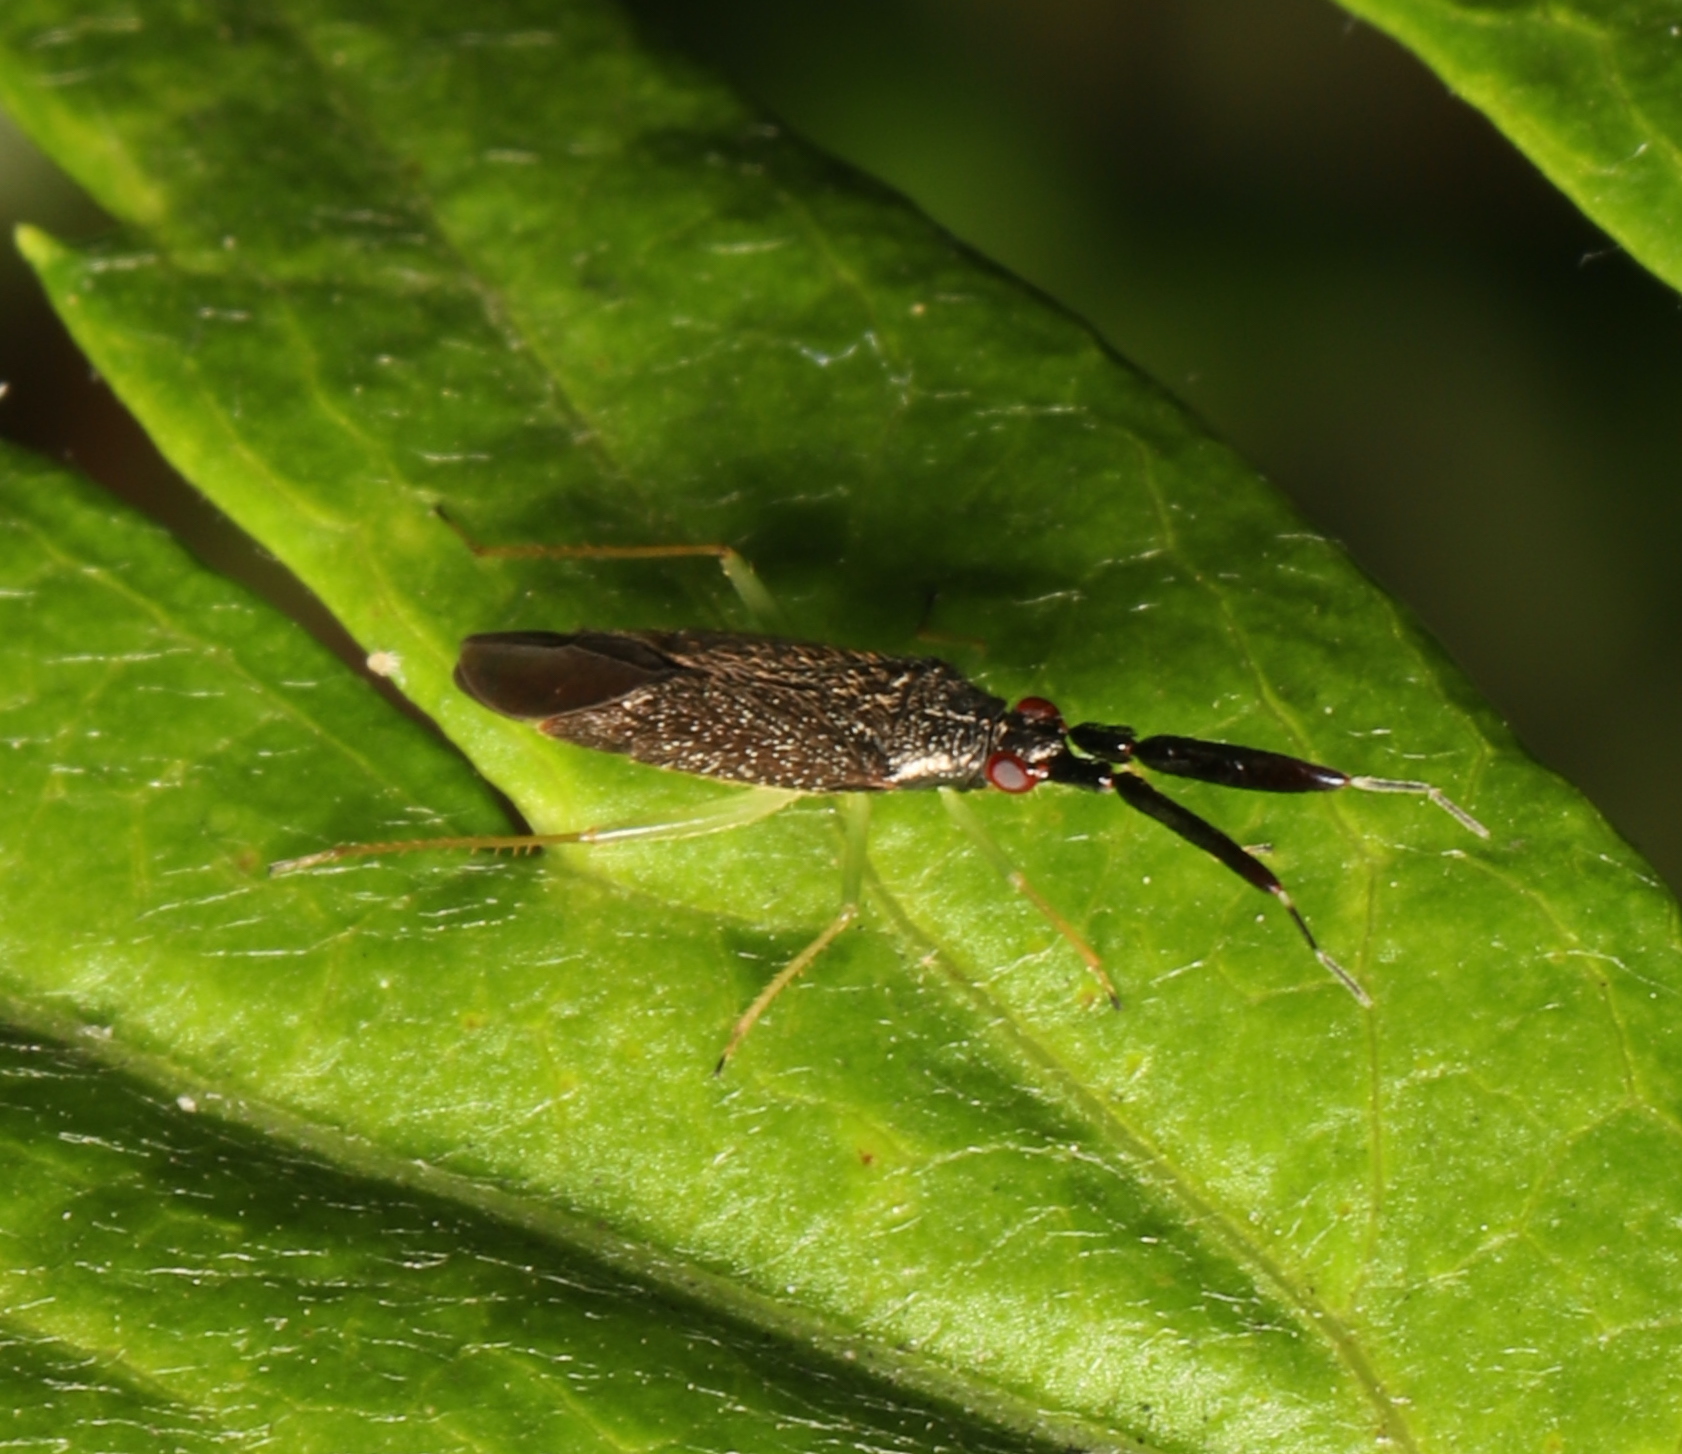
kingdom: Animalia
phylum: Arthropoda
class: Insecta
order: Hemiptera
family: Miridae
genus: Heterotoma
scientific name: Heterotoma planicornis
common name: Plant bug
